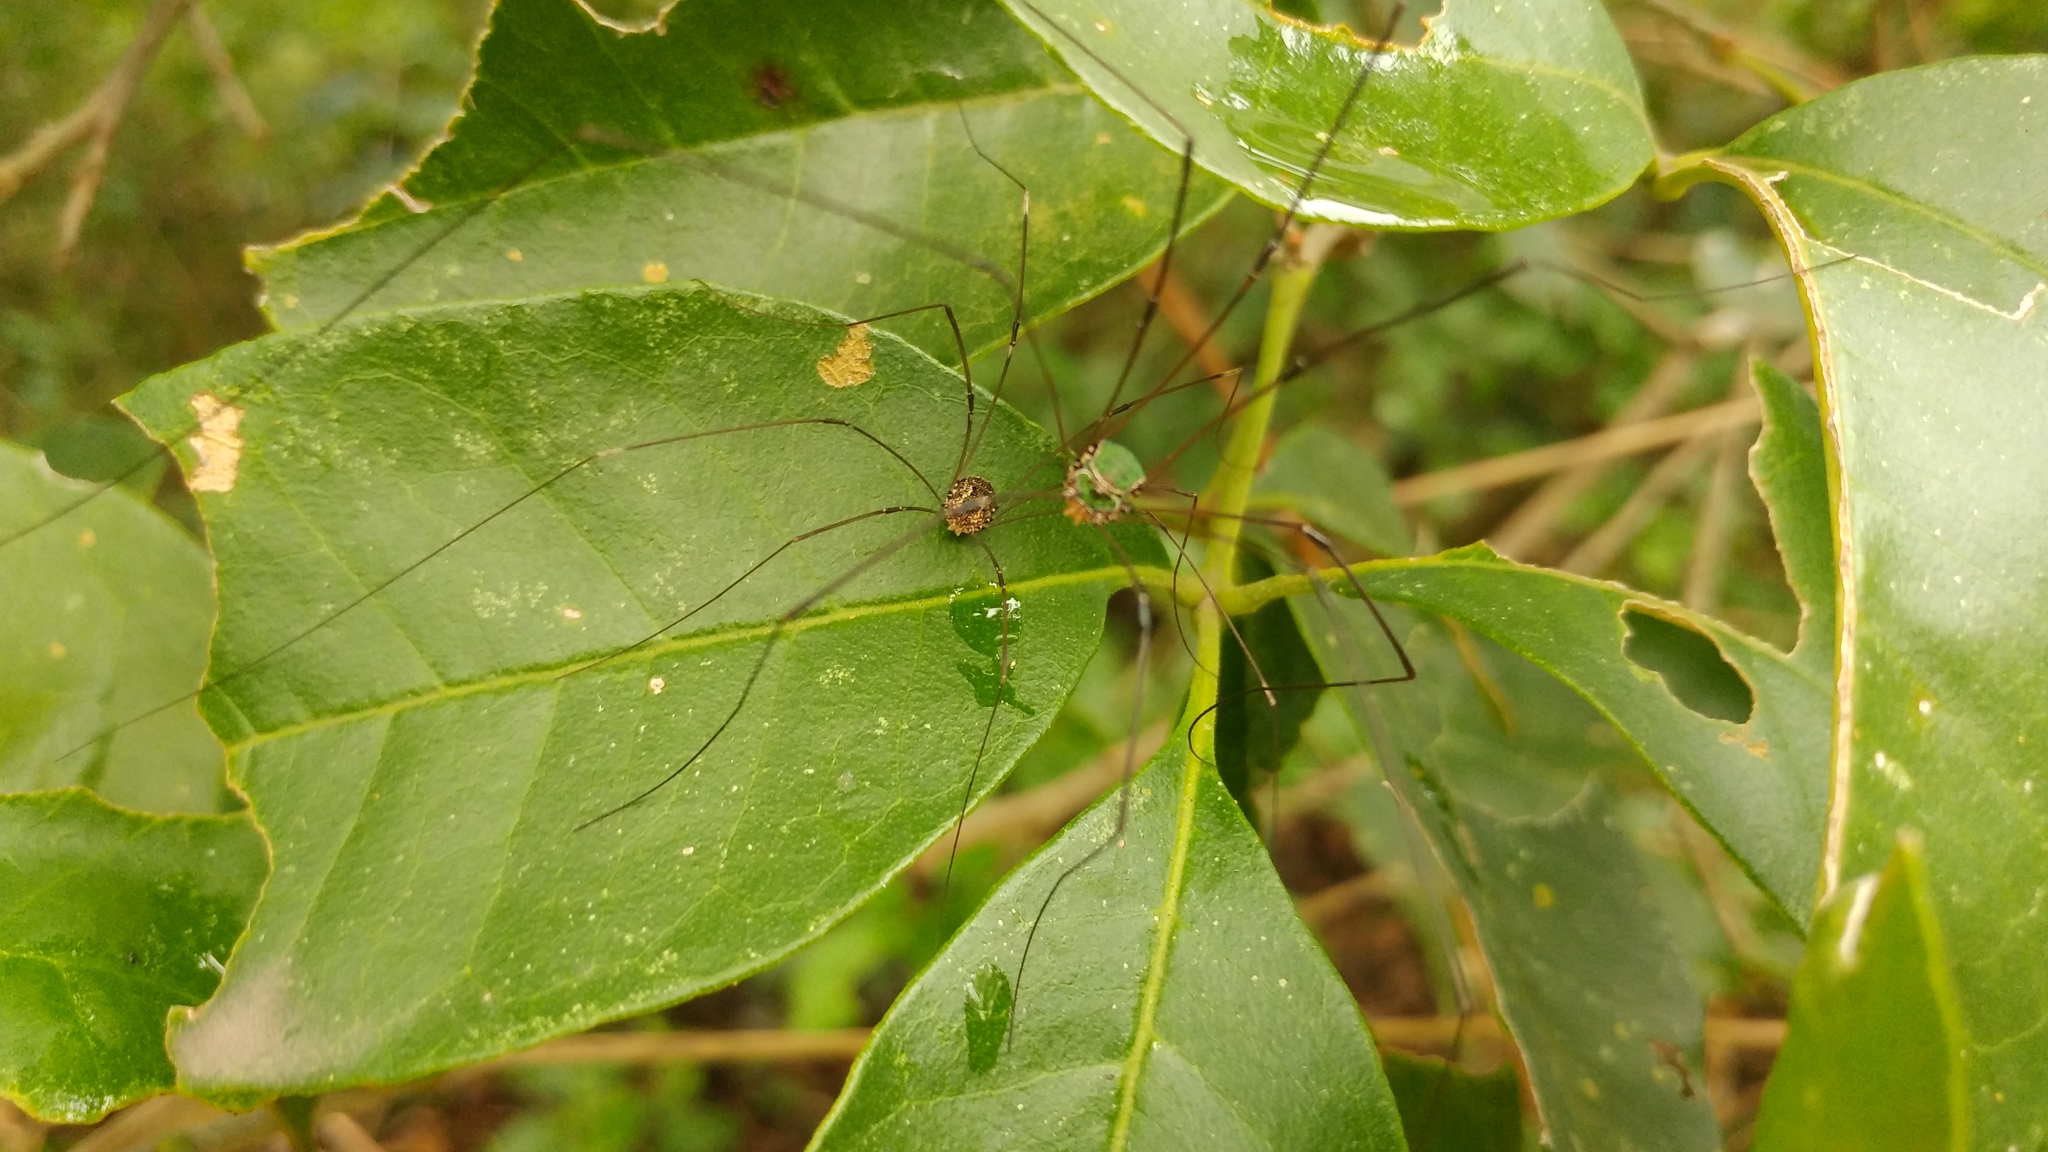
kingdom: Animalia
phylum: Arthropoda
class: Arachnida
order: Opiliones
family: Sclerosomatidae
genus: Leiobunum
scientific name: Leiobunum viridorsum
